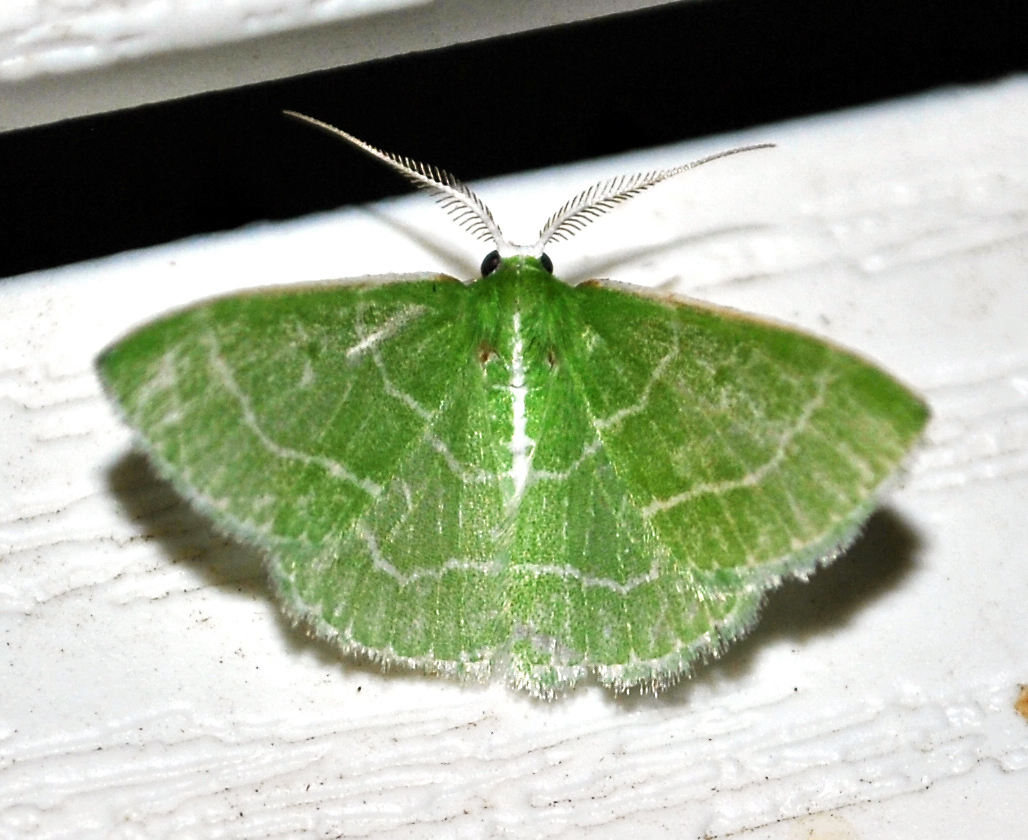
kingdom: Animalia
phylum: Arthropoda
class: Insecta
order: Lepidoptera
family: Geometridae
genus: Synchlora
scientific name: Synchlora aerata
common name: Wavy-lined emerald
